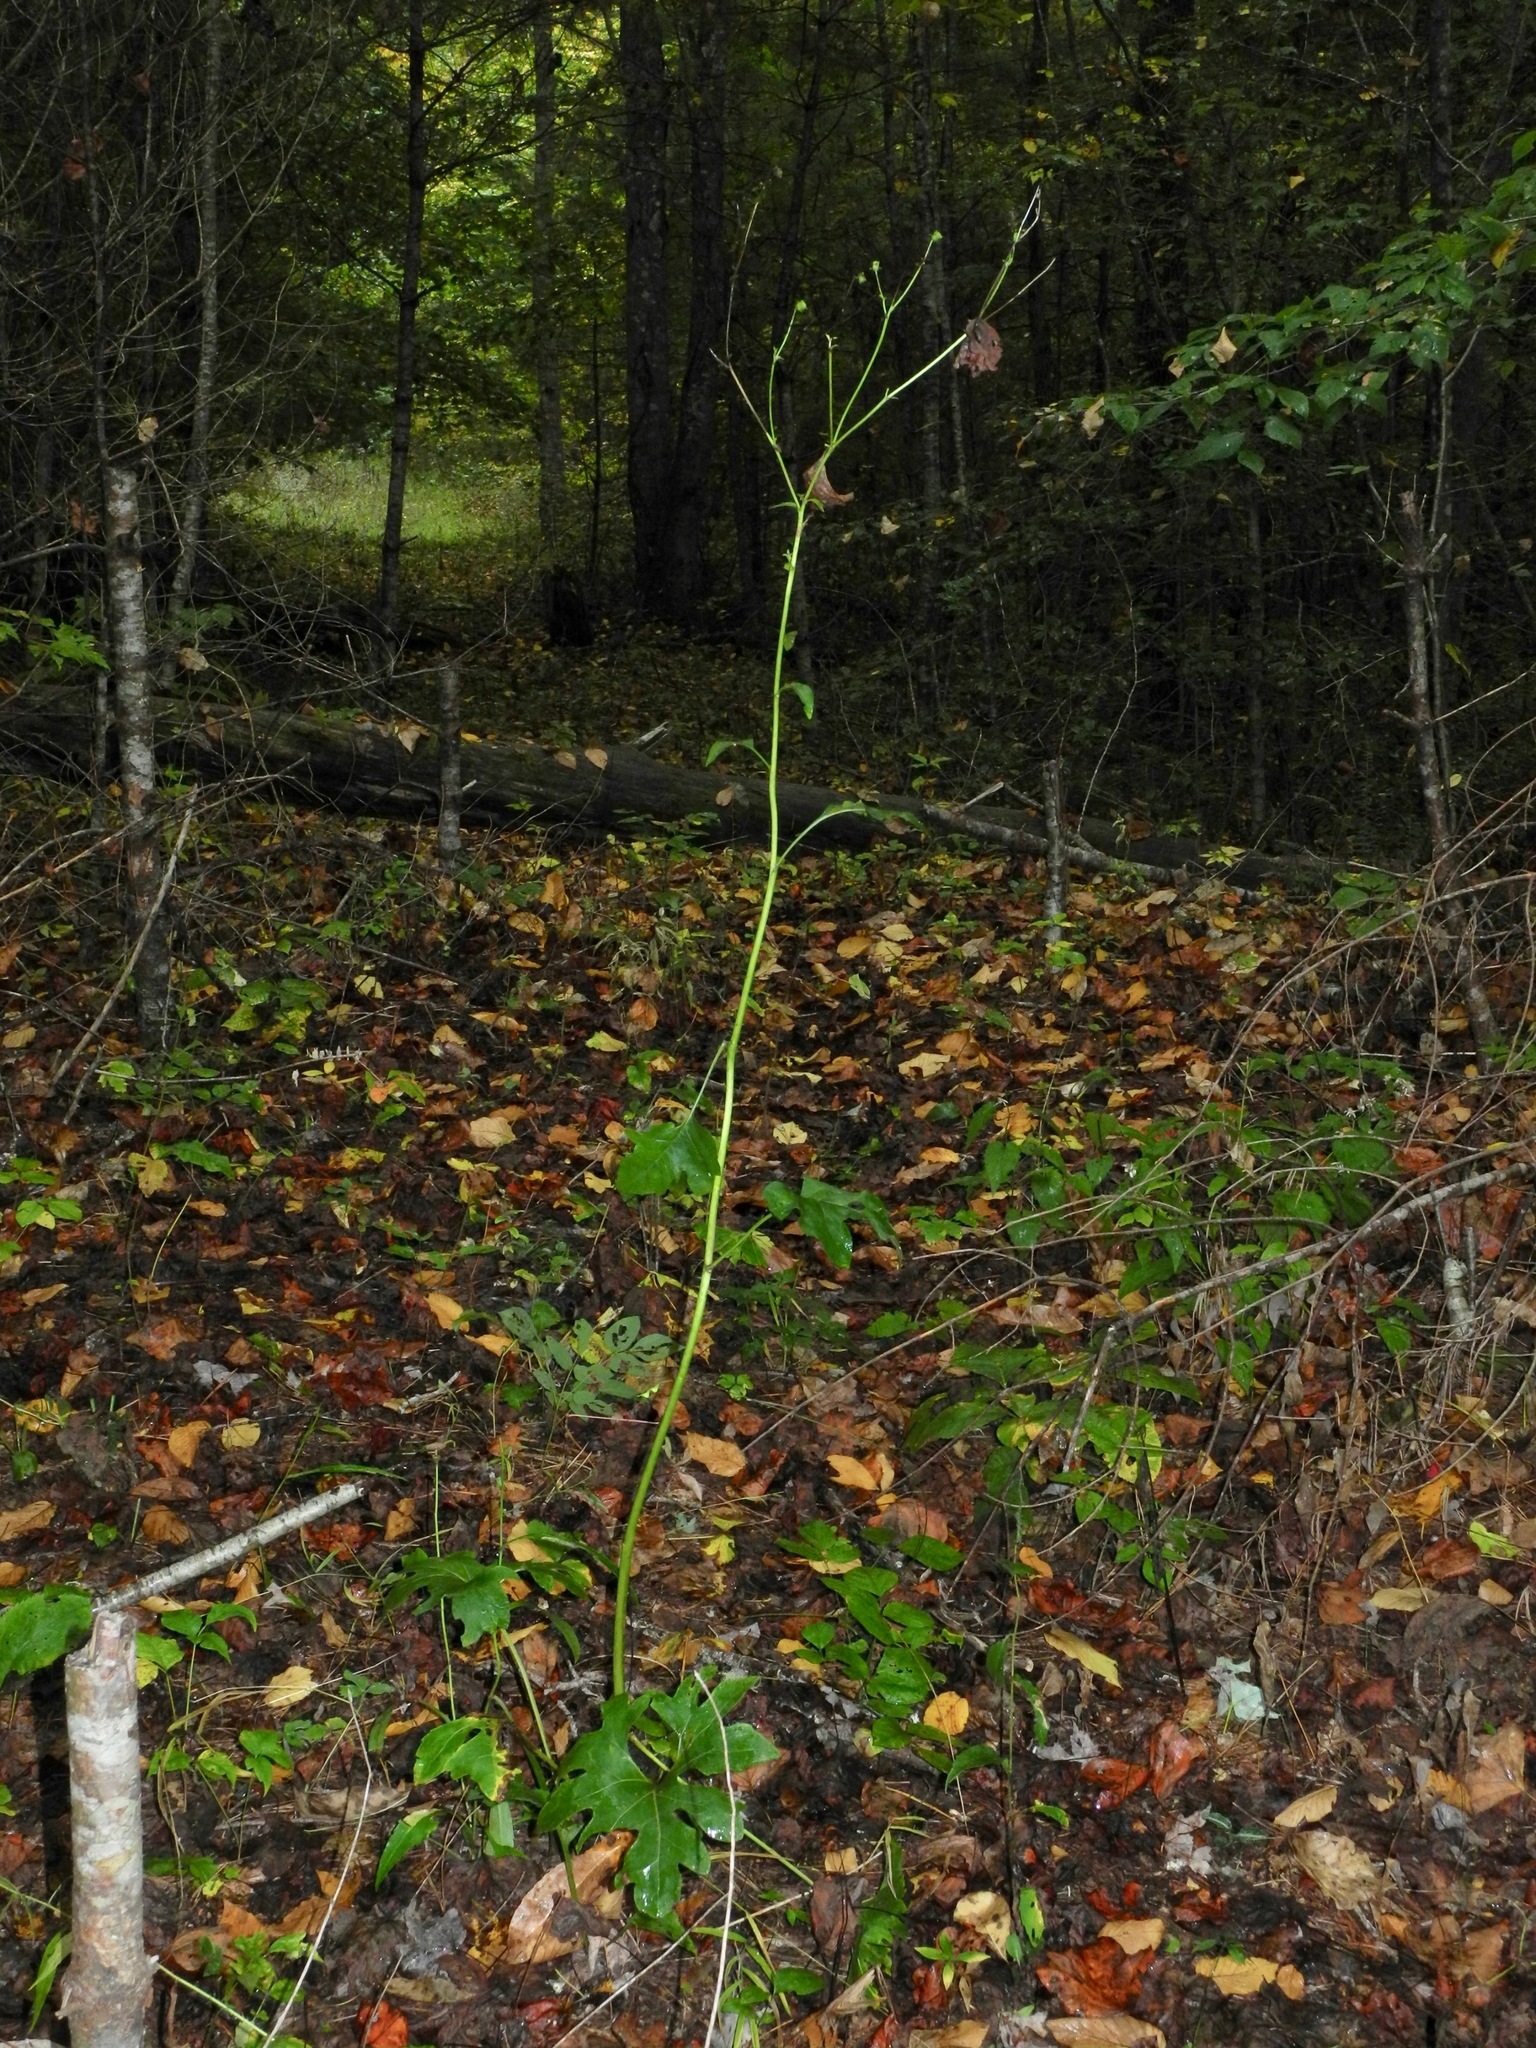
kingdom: Plantae
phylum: Tracheophyta
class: Magnoliopsida
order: Asterales
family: Asteraceae
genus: Silphium
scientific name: Silphium compositum
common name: Lesser basal-leaf rosinweed
